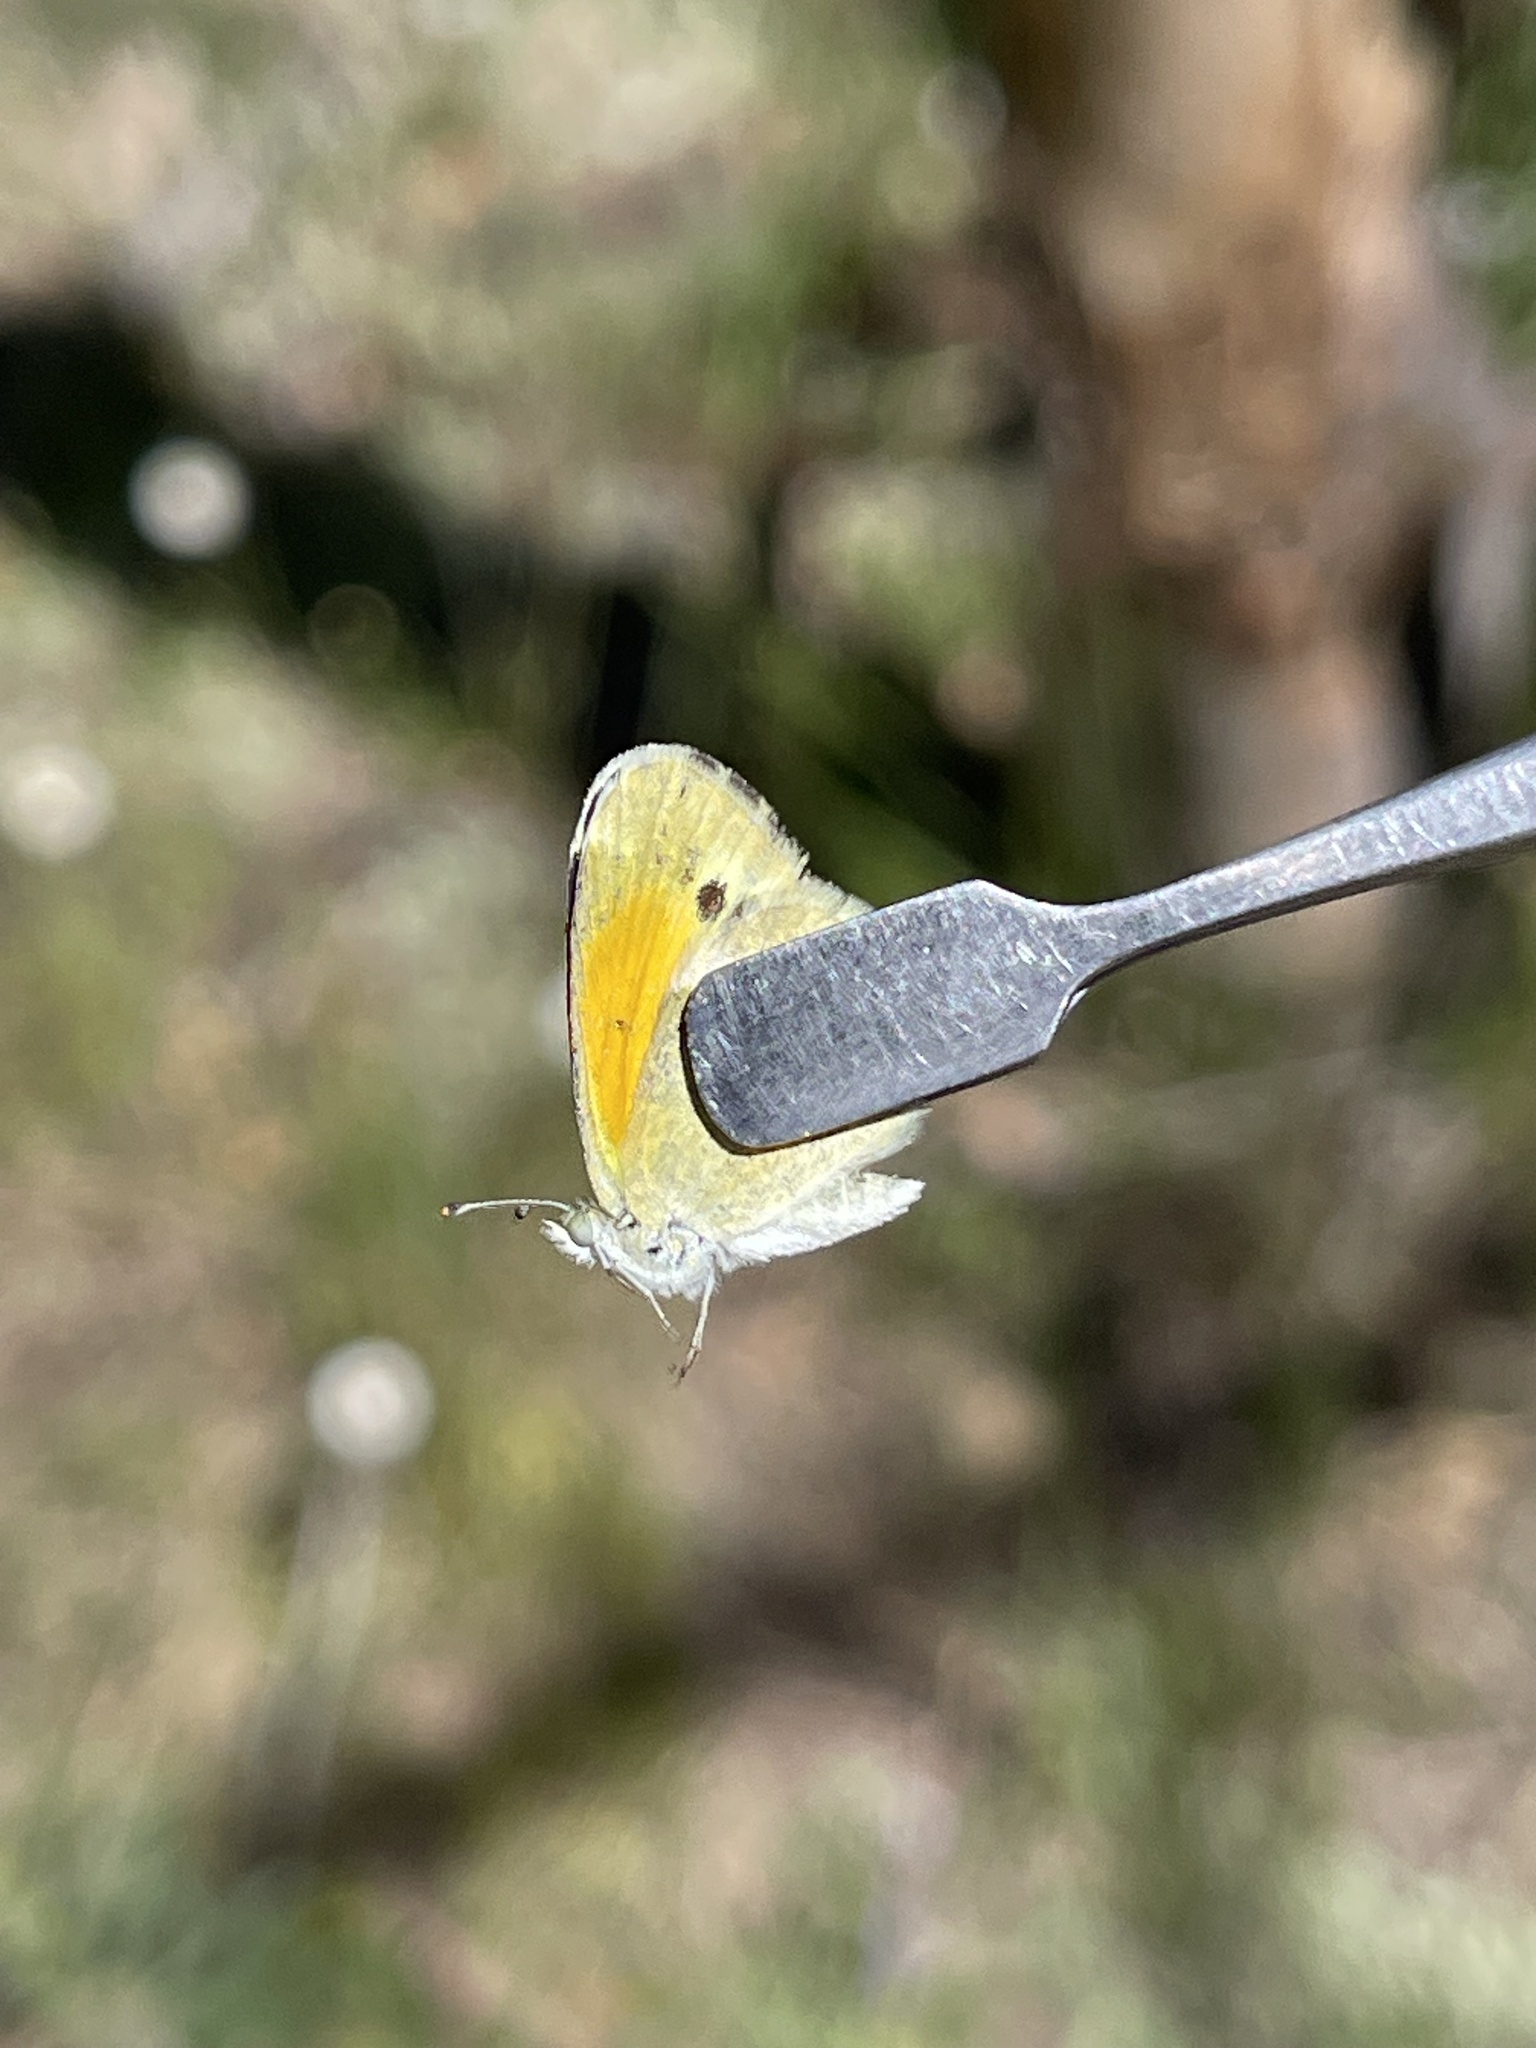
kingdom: Animalia
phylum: Arthropoda
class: Insecta
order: Lepidoptera
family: Pieridae
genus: Nathalis
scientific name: Nathalis iole
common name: Dainty sulphur
